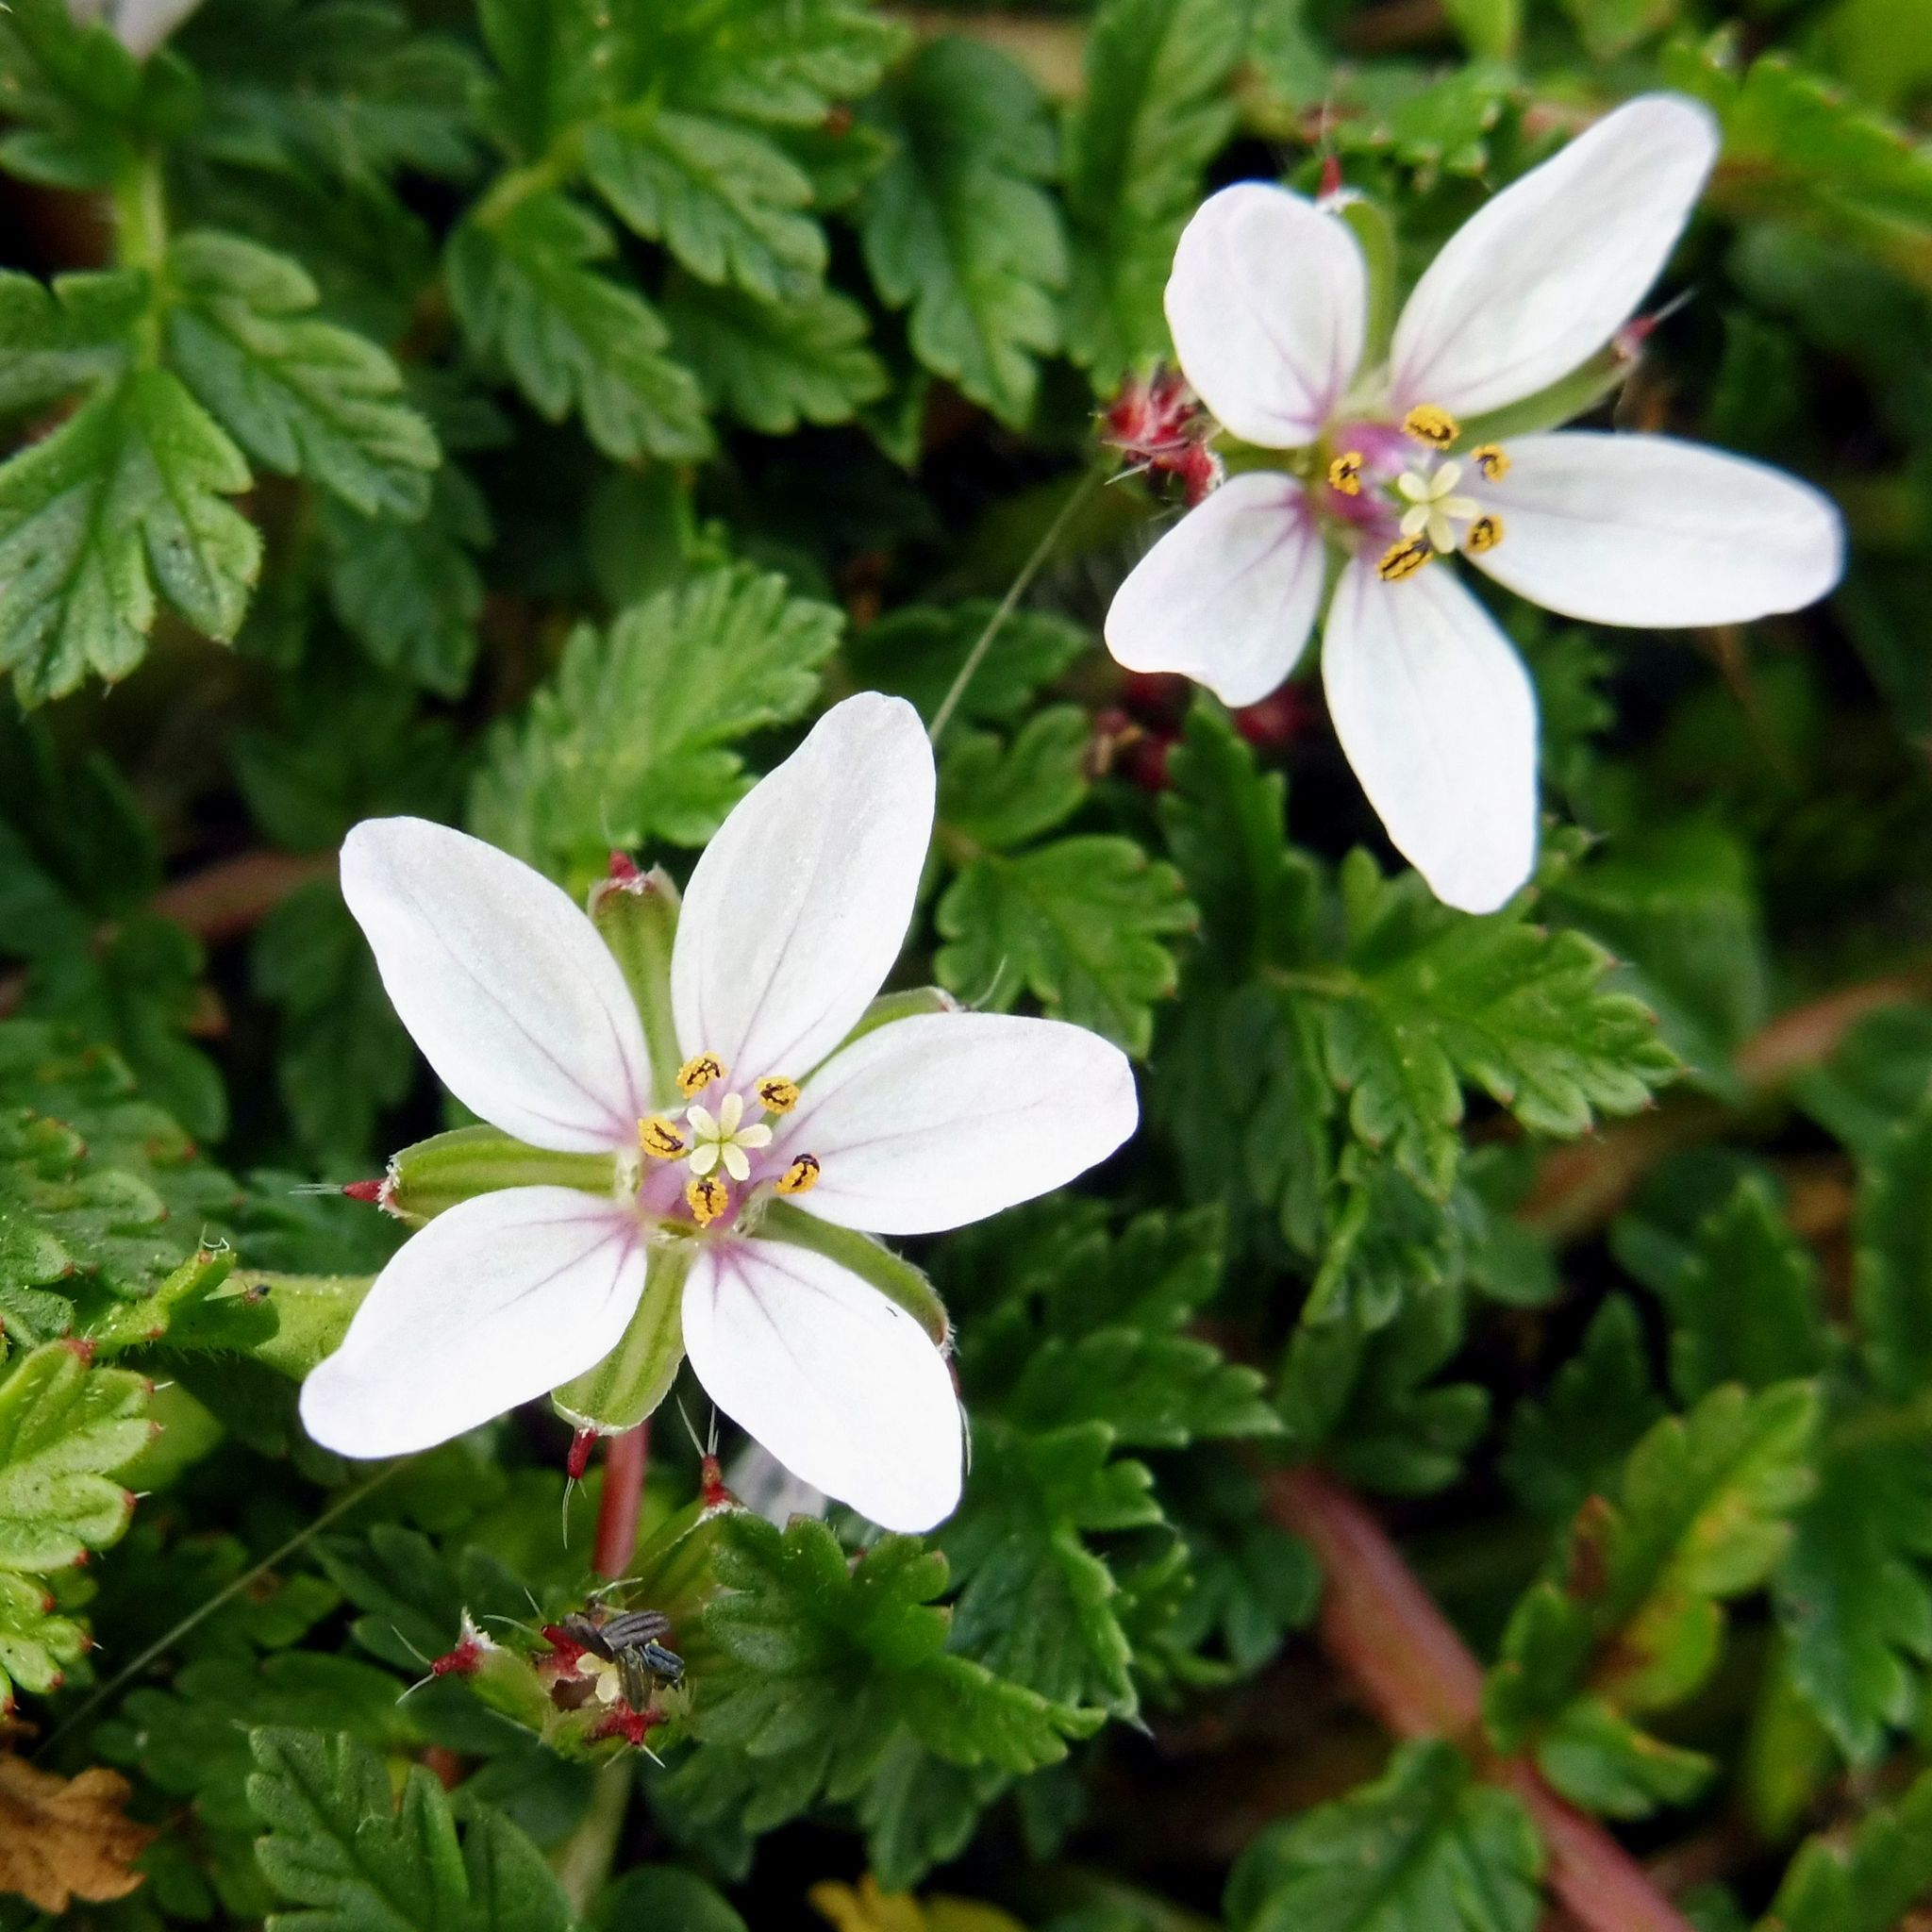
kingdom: Plantae
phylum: Tracheophyta
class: Magnoliopsida
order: Geraniales
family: Geraniaceae
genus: Erodium
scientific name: Erodium cicutarium
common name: Common stork's-bill
